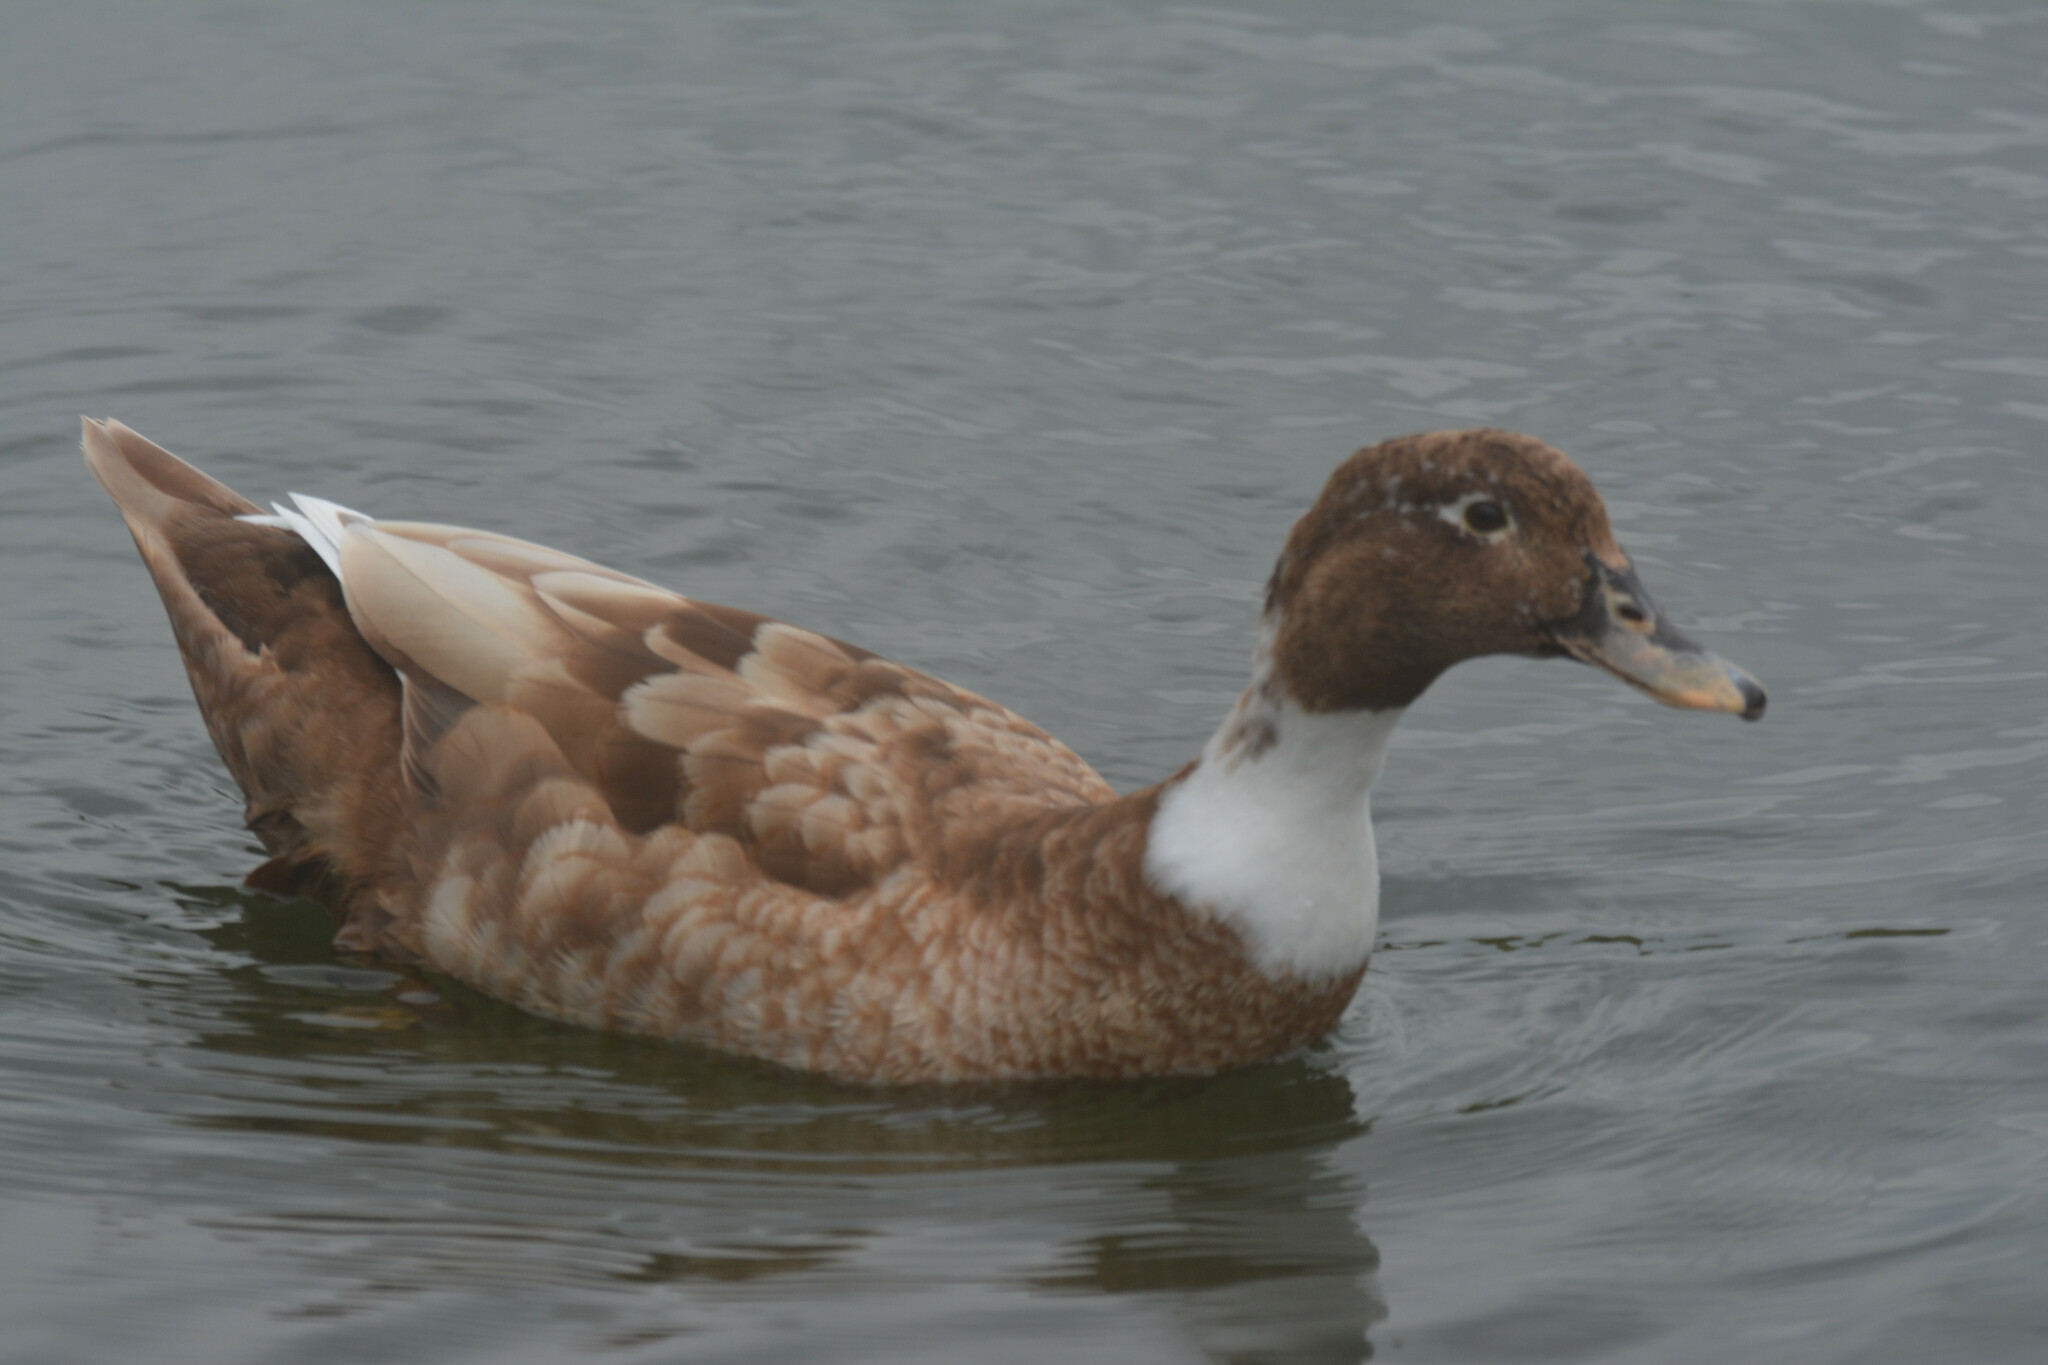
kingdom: Animalia
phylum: Chordata
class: Aves
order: Anseriformes
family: Anatidae
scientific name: Anatidae
